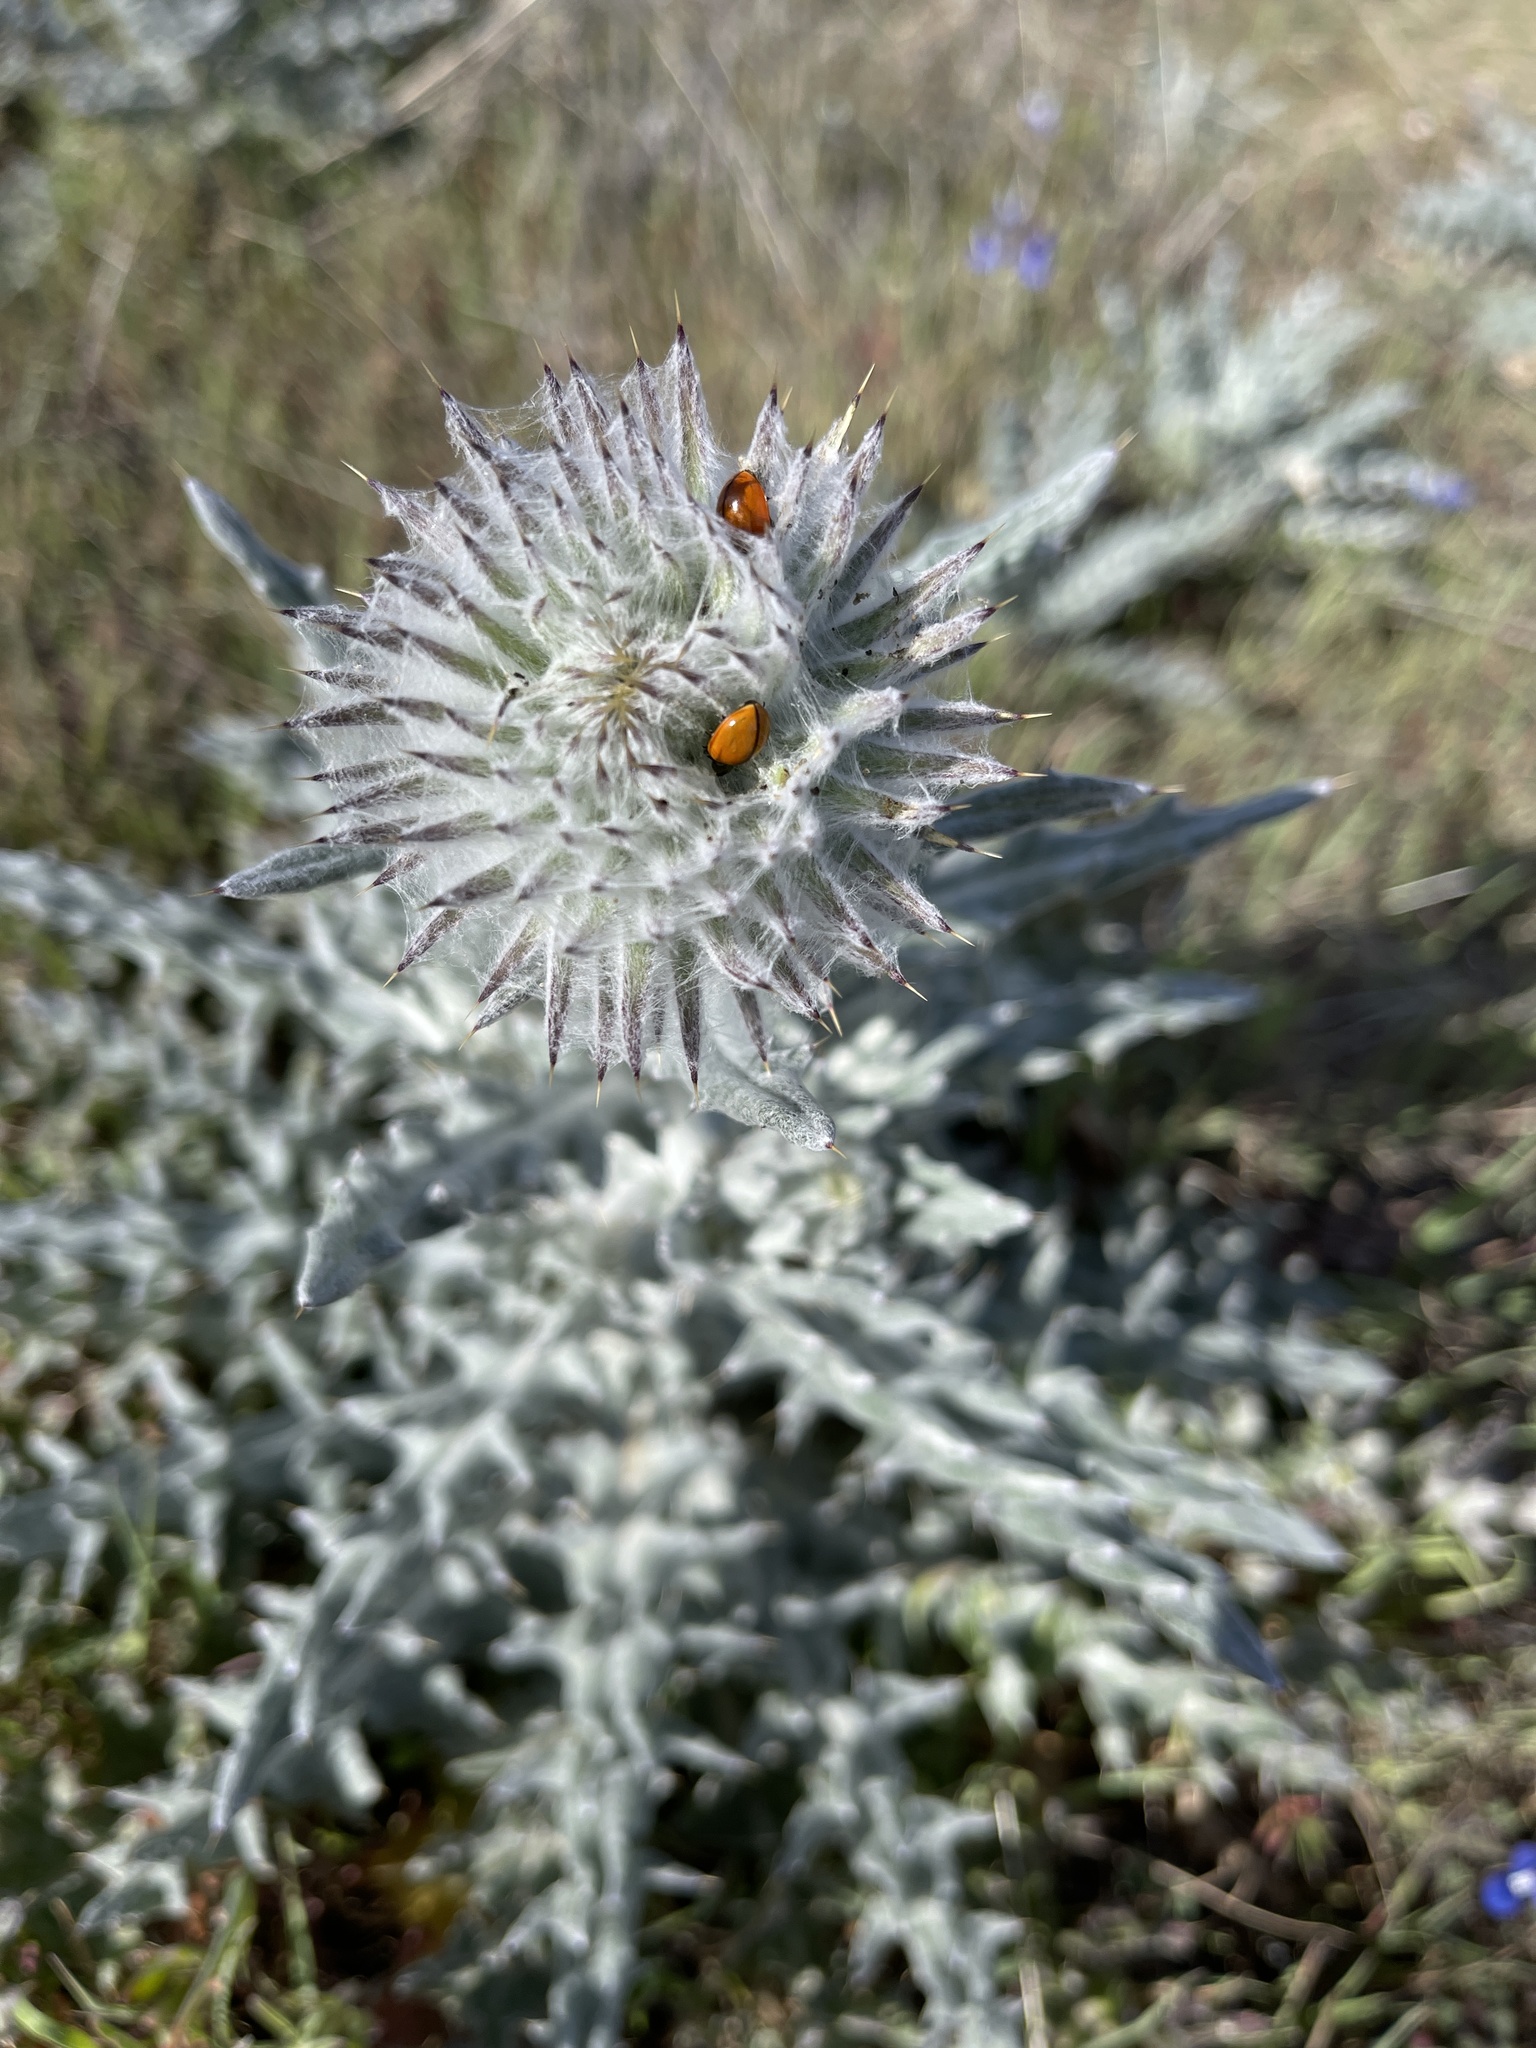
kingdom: Plantae
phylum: Tracheophyta
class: Magnoliopsida
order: Asterales
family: Asteraceae
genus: Cirsium
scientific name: Cirsium occidentale
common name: Western thistle
